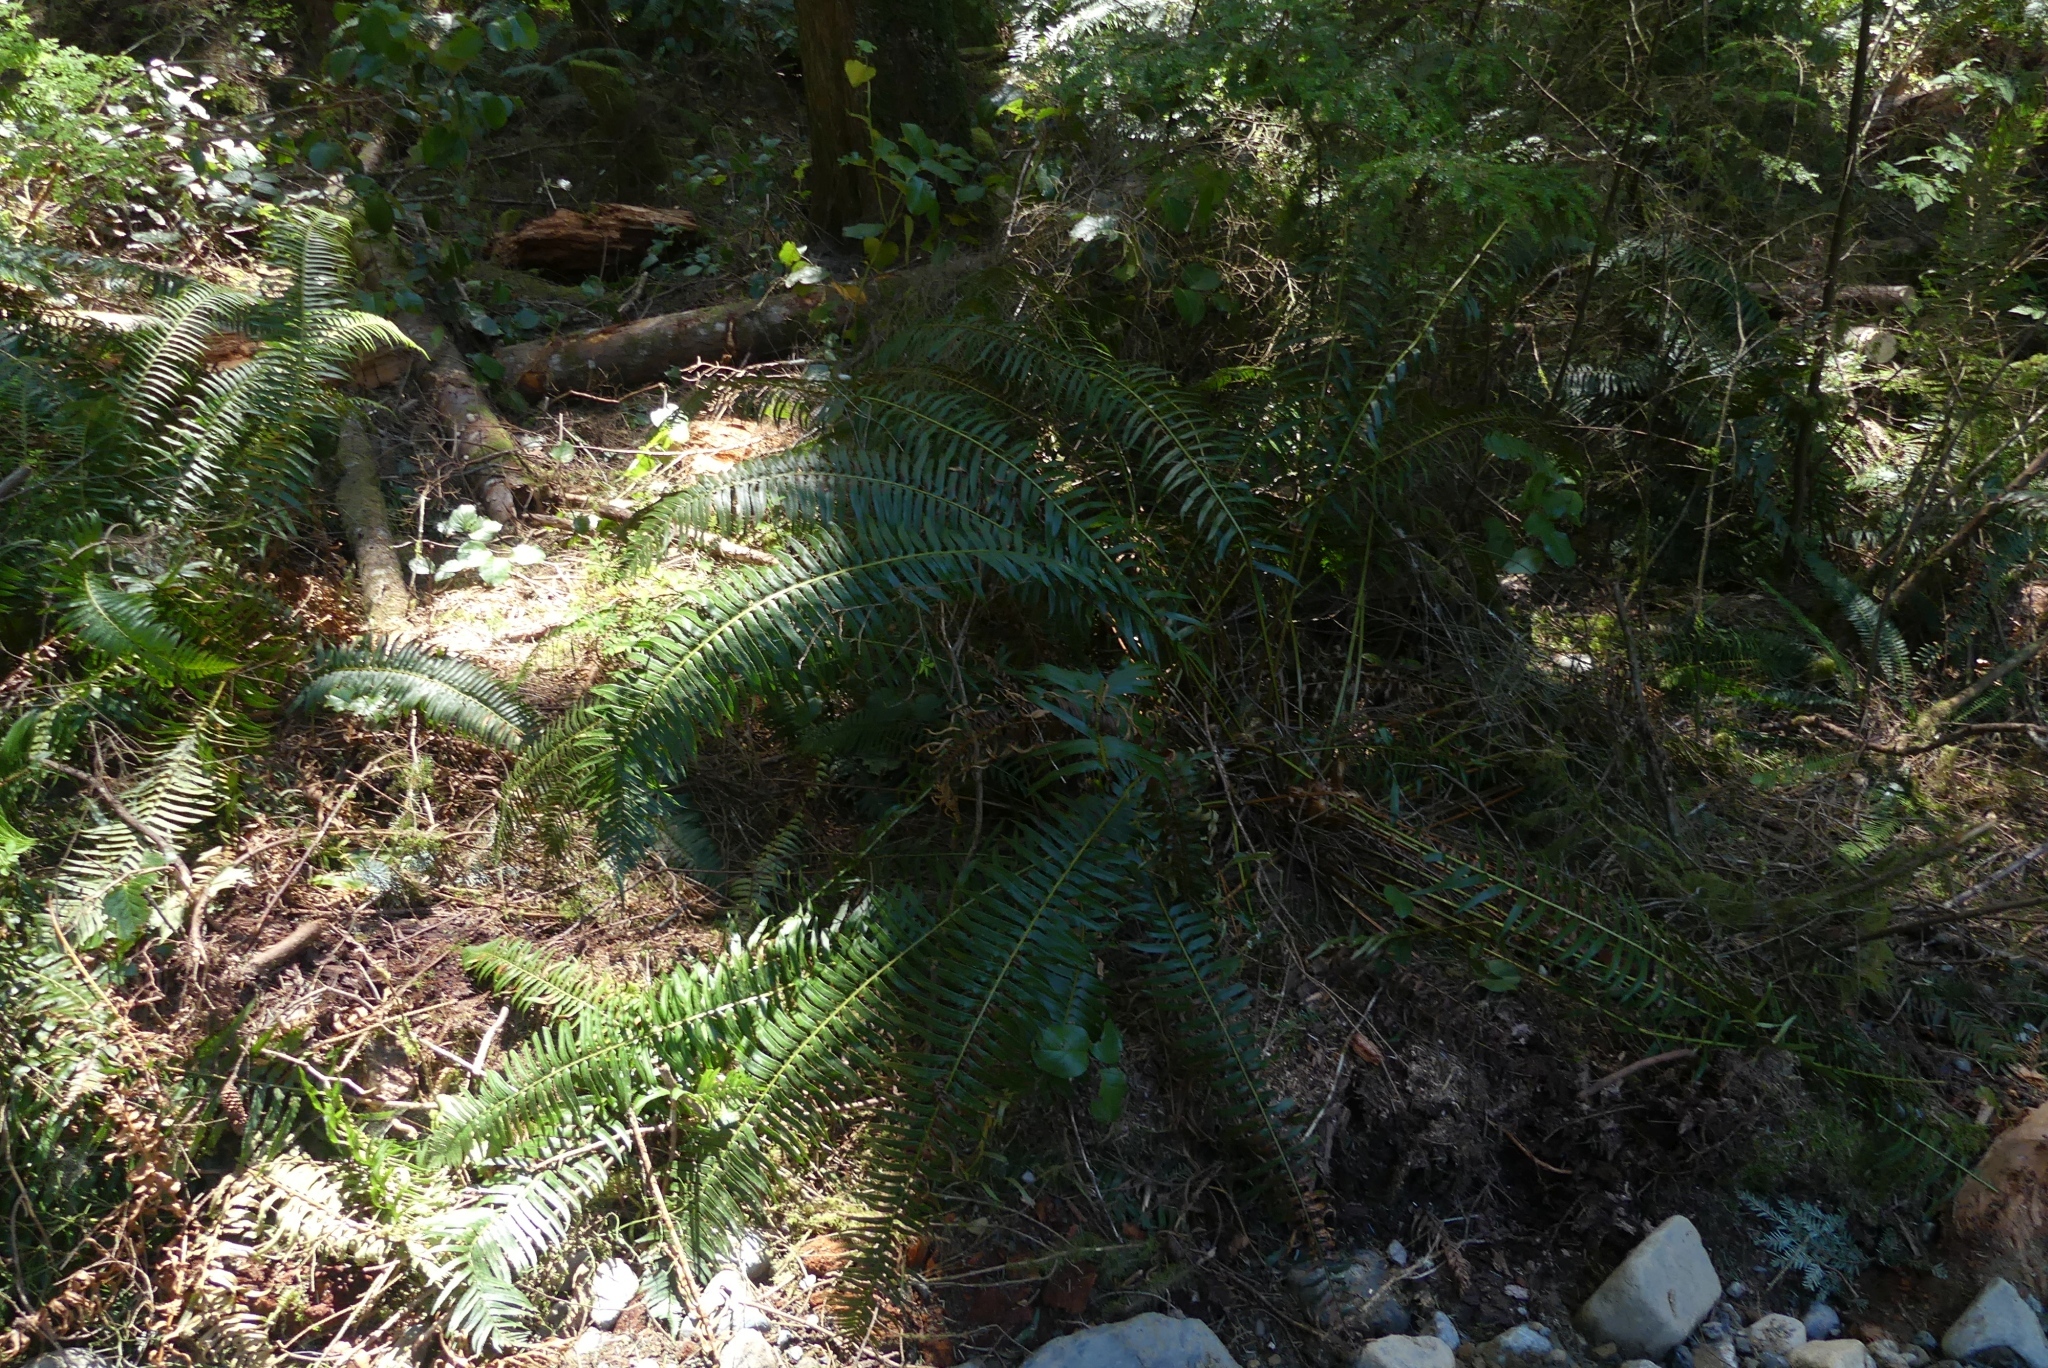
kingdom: Plantae
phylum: Tracheophyta
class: Polypodiopsida
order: Polypodiales
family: Dryopteridaceae
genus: Polystichum
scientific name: Polystichum munitum
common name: Western sword-fern
